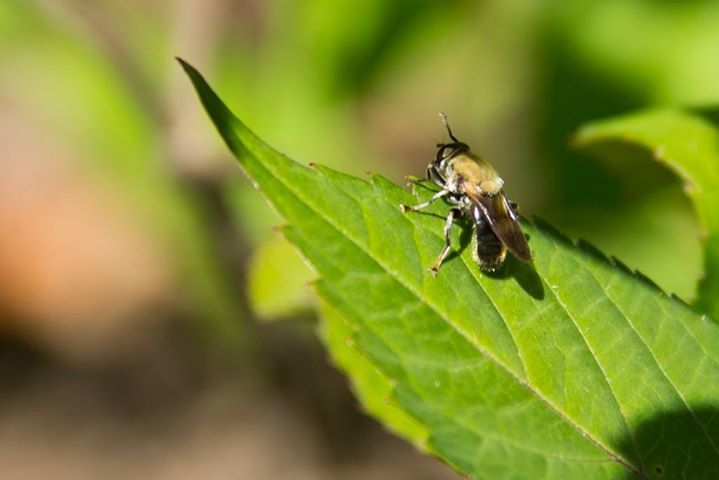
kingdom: Animalia
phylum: Arthropoda
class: Insecta
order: Diptera
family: Syrphidae
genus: Pterallastes
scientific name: Pterallastes thoracicus
